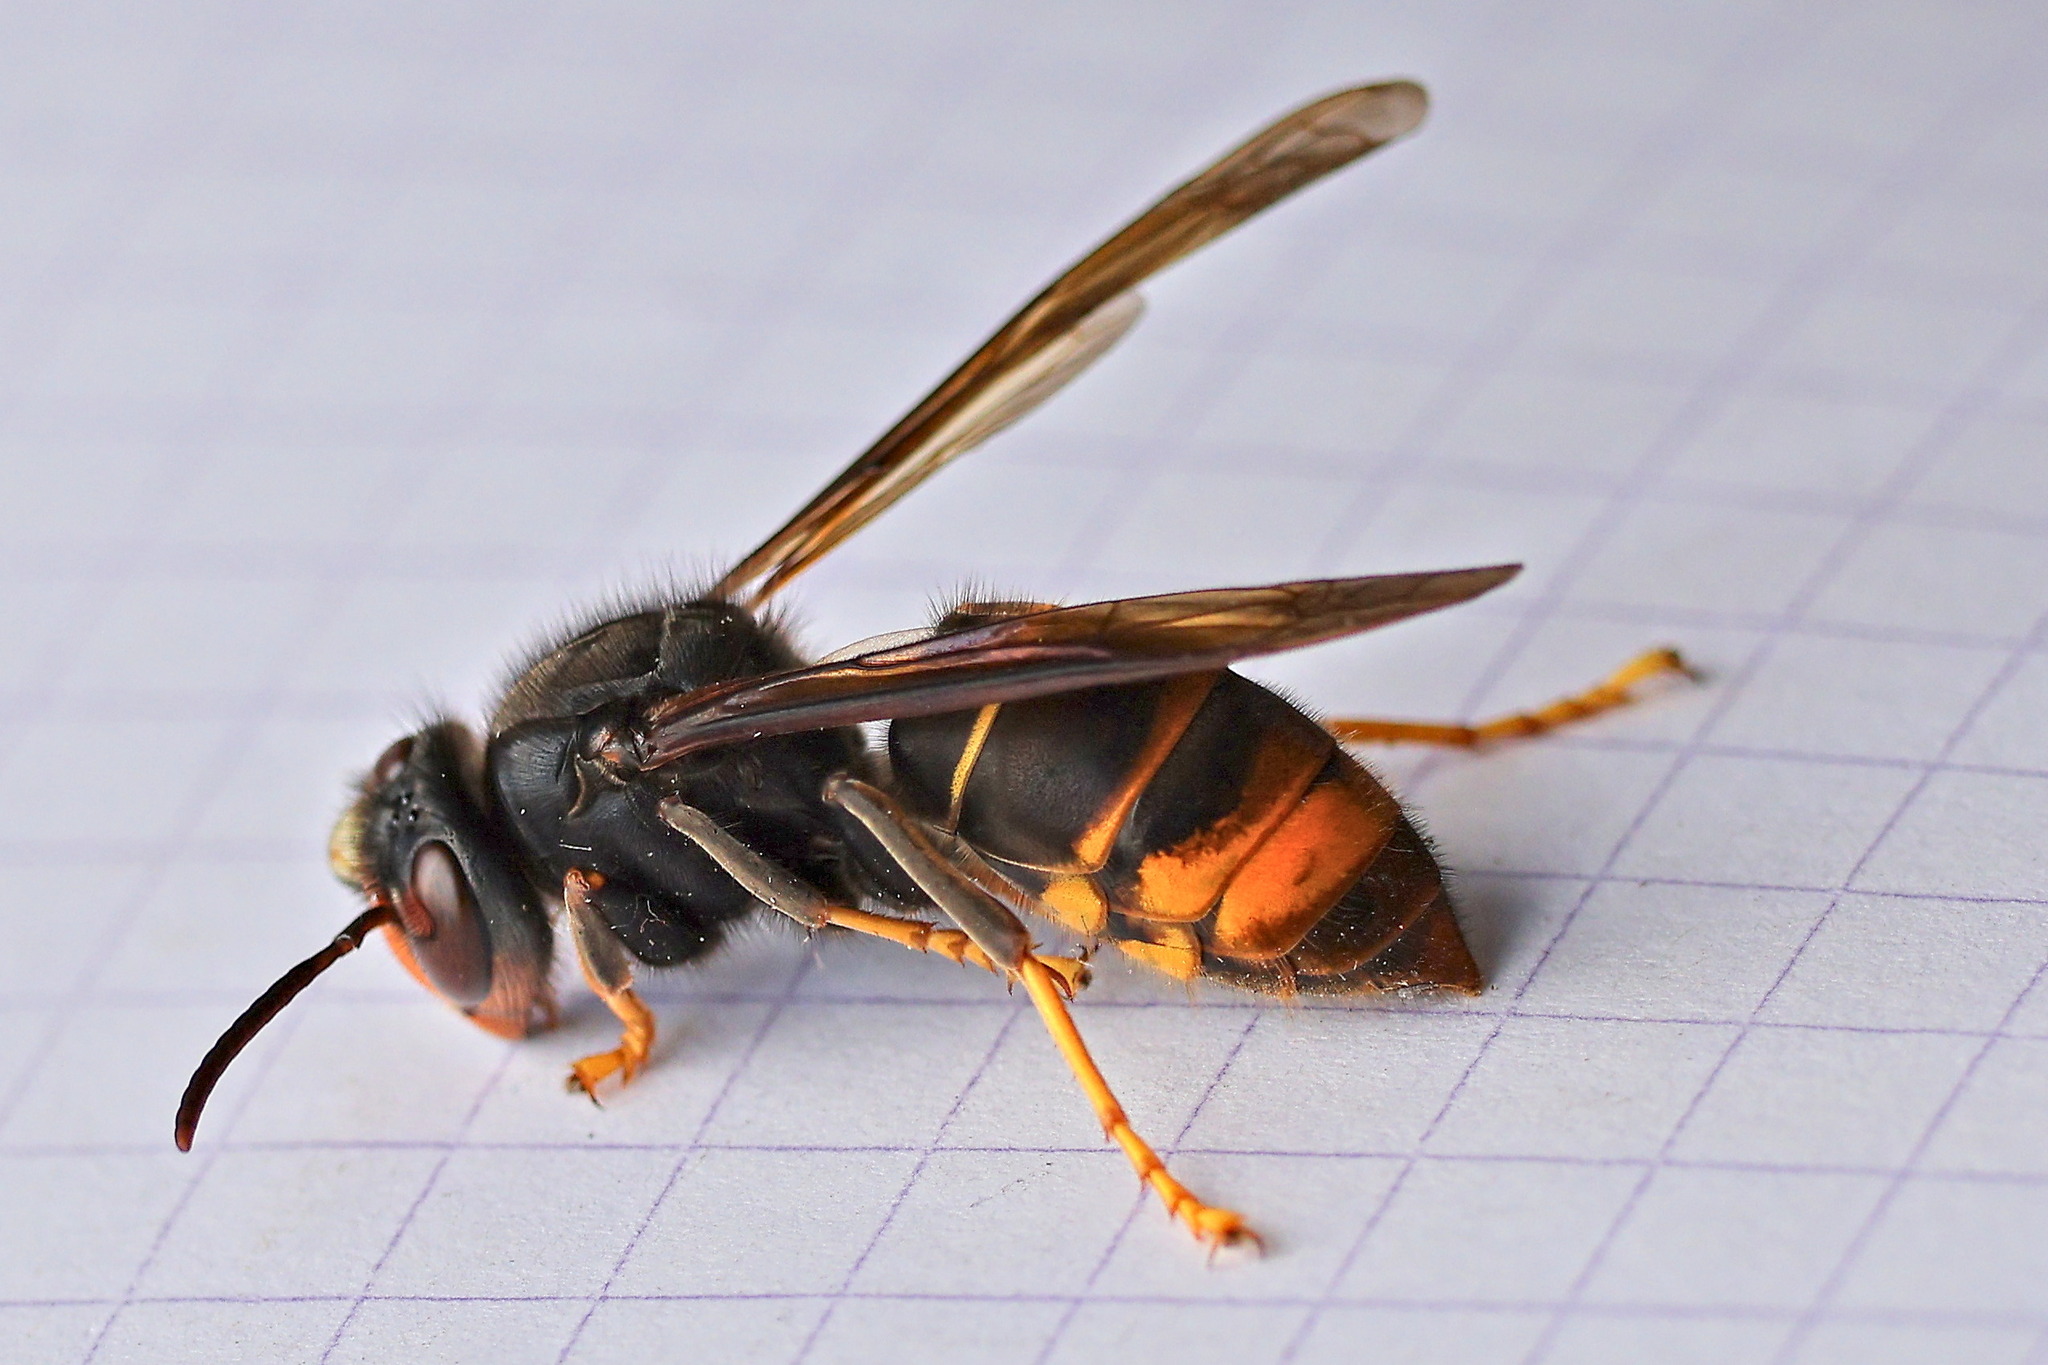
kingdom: Animalia
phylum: Arthropoda
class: Insecta
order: Hymenoptera
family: Vespidae
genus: Vespa
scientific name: Vespa velutina
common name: Asian hornet
